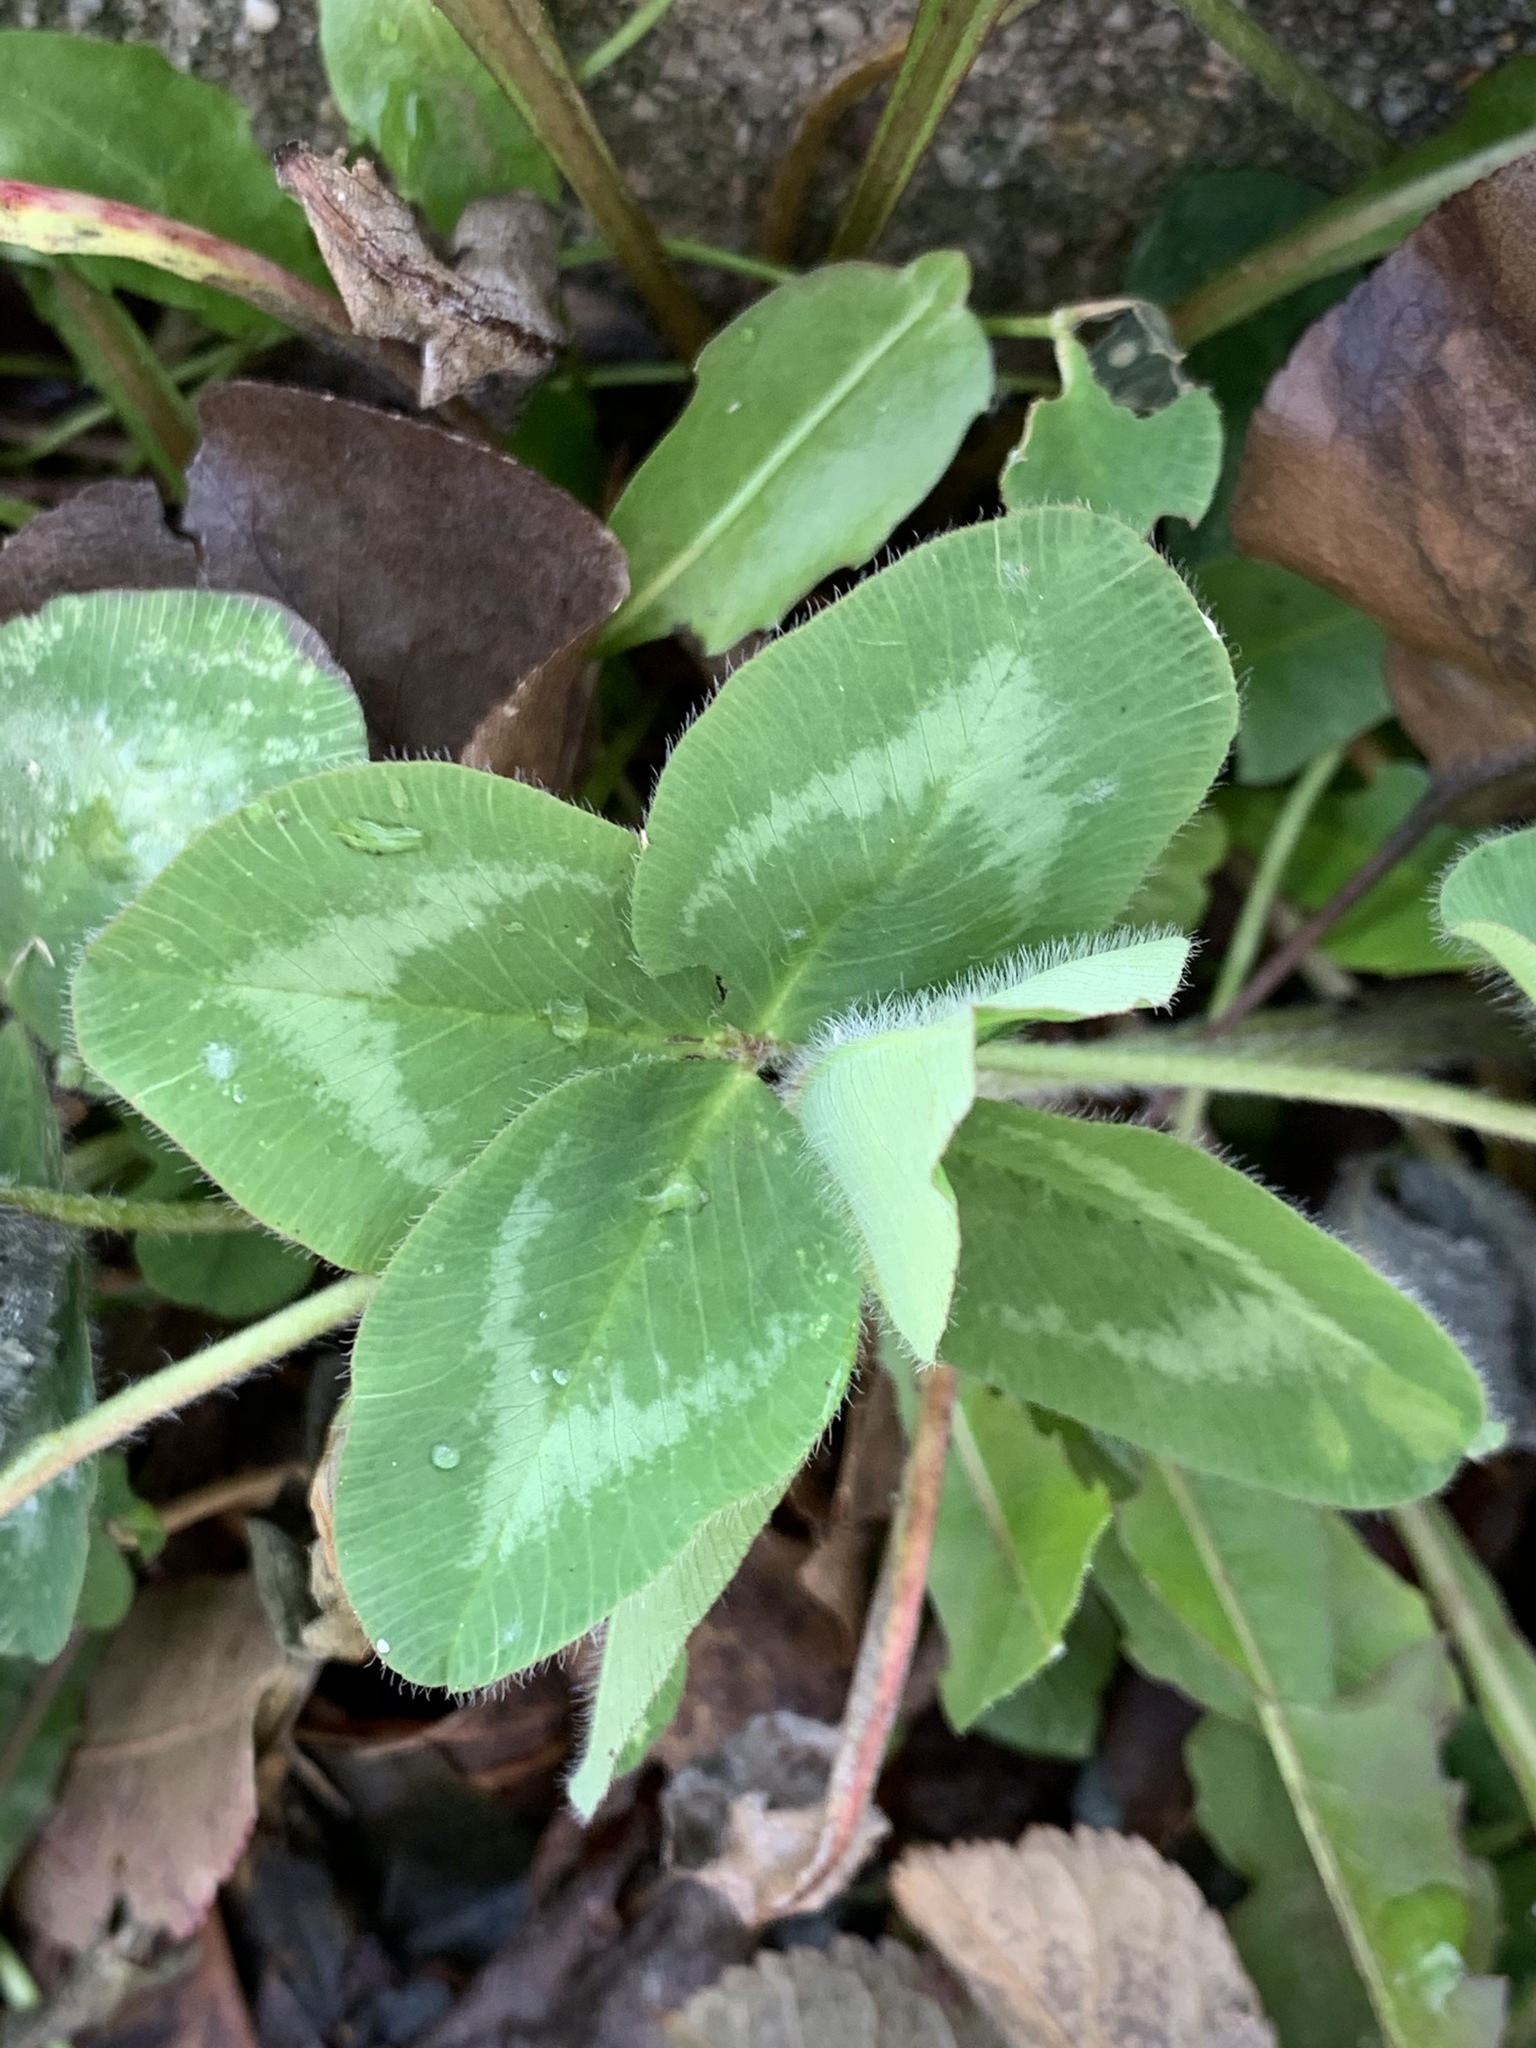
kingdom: Plantae
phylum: Tracheophyta
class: Magnoliopsida
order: Fabales
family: Fabaceae
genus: Trifolium
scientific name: Trifolium pratense
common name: Red clover
